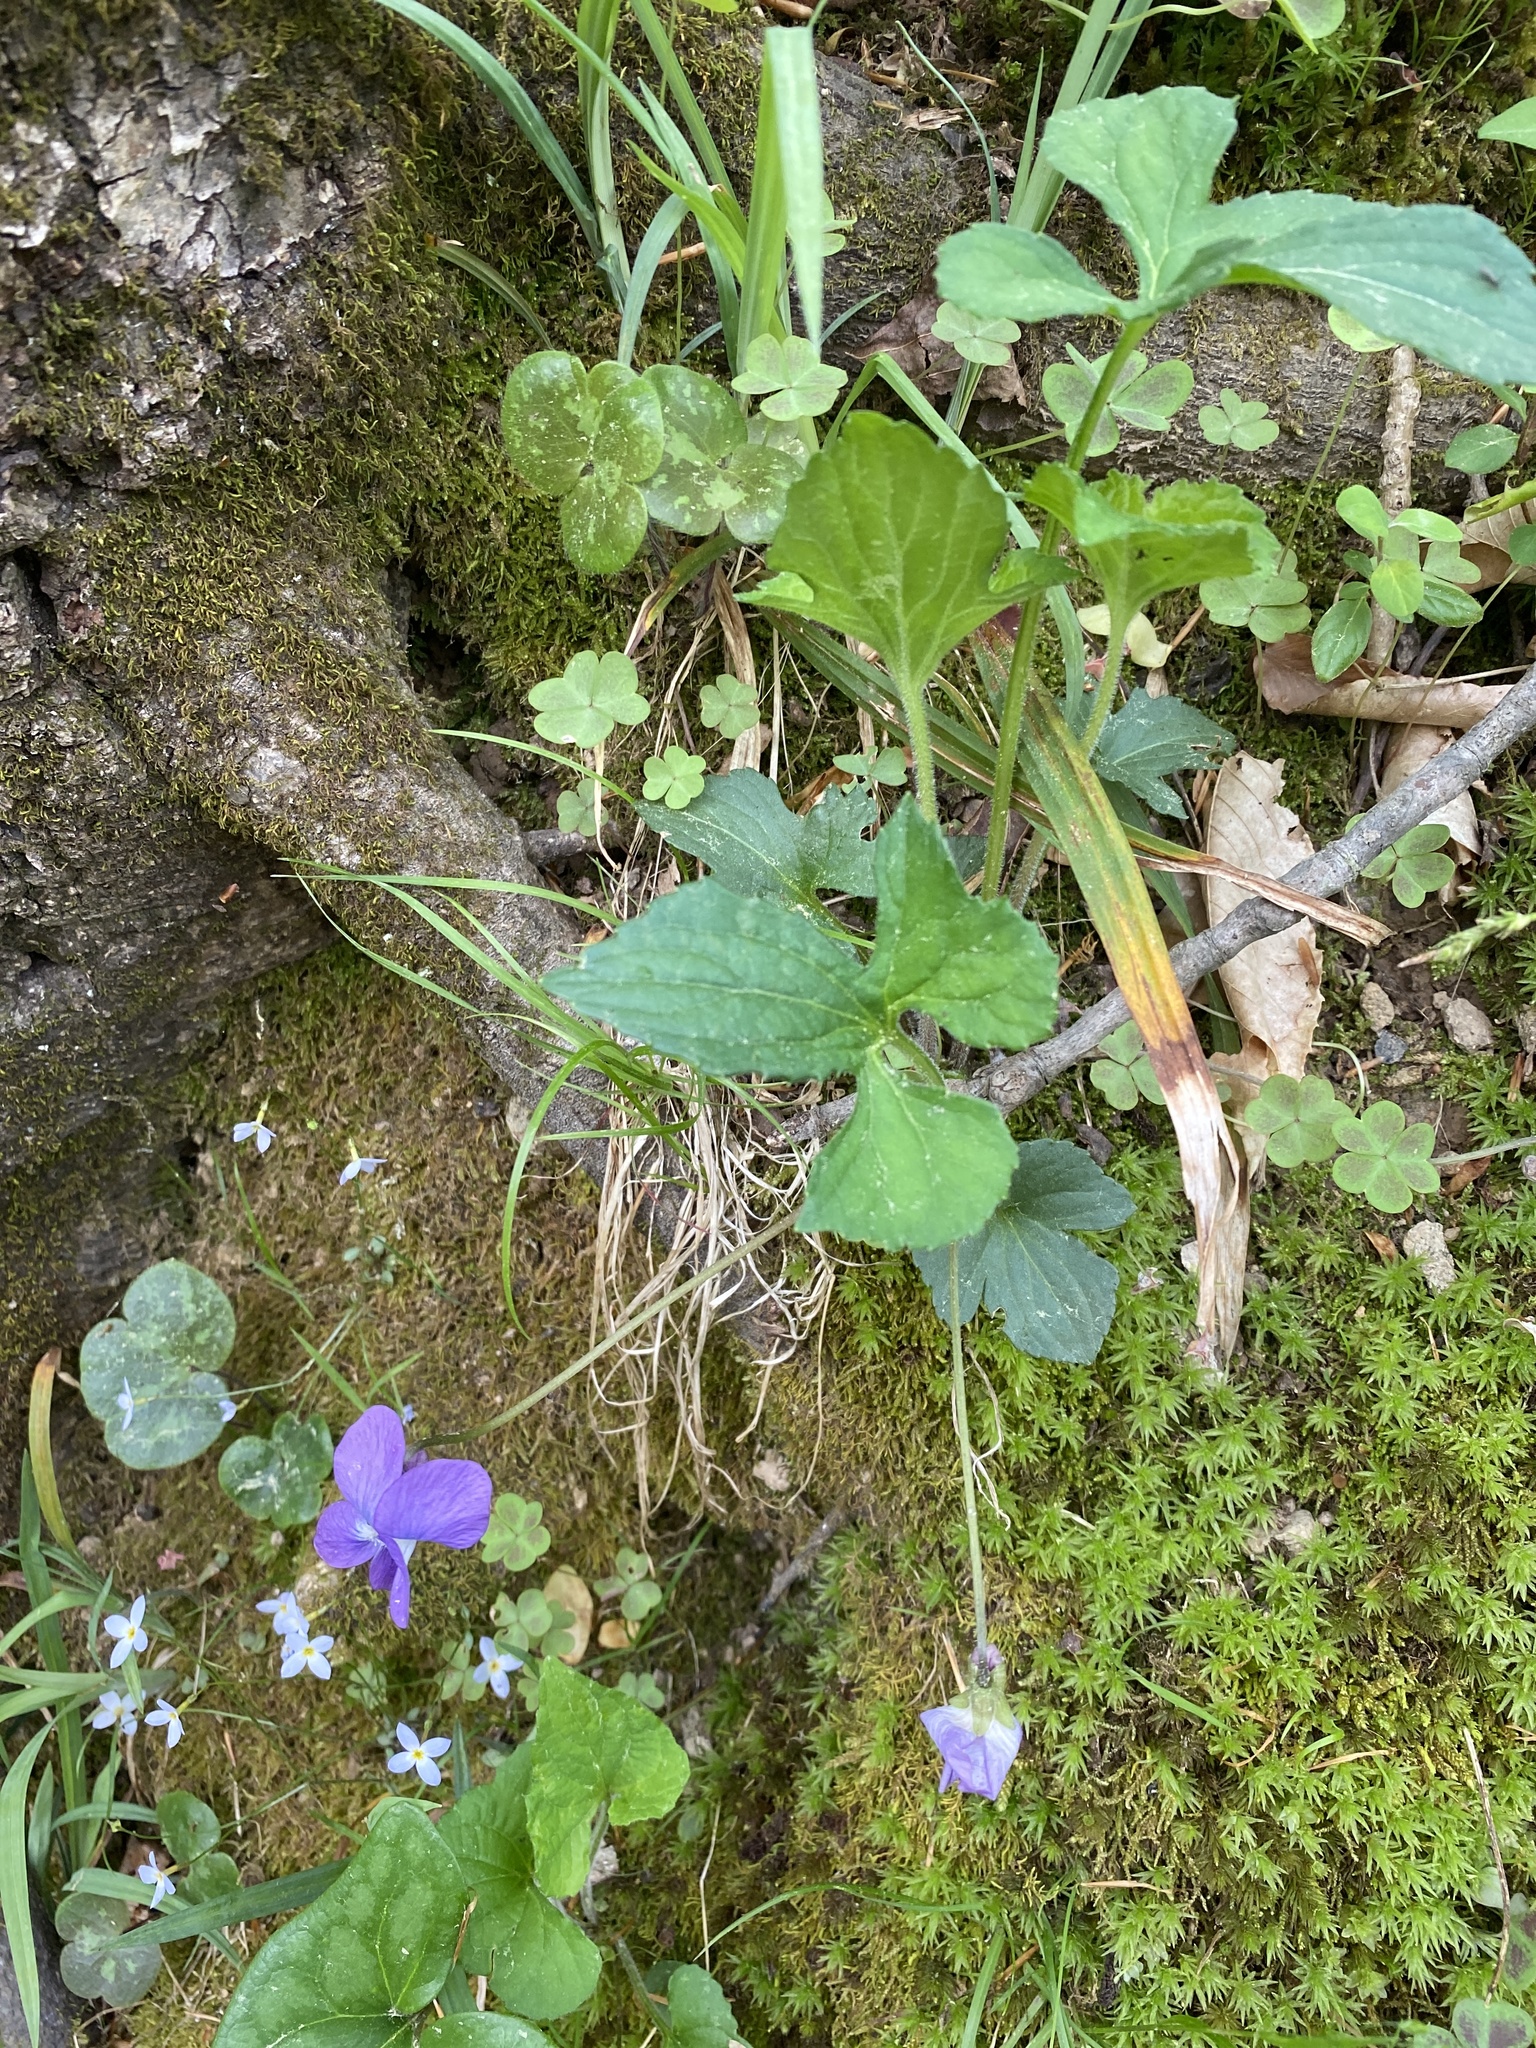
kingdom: Plantae
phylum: Tracheophyta
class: Magnoliopsida
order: Malpighiales
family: Violaceae
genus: Viola
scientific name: Viola palmata
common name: Early blue violet
